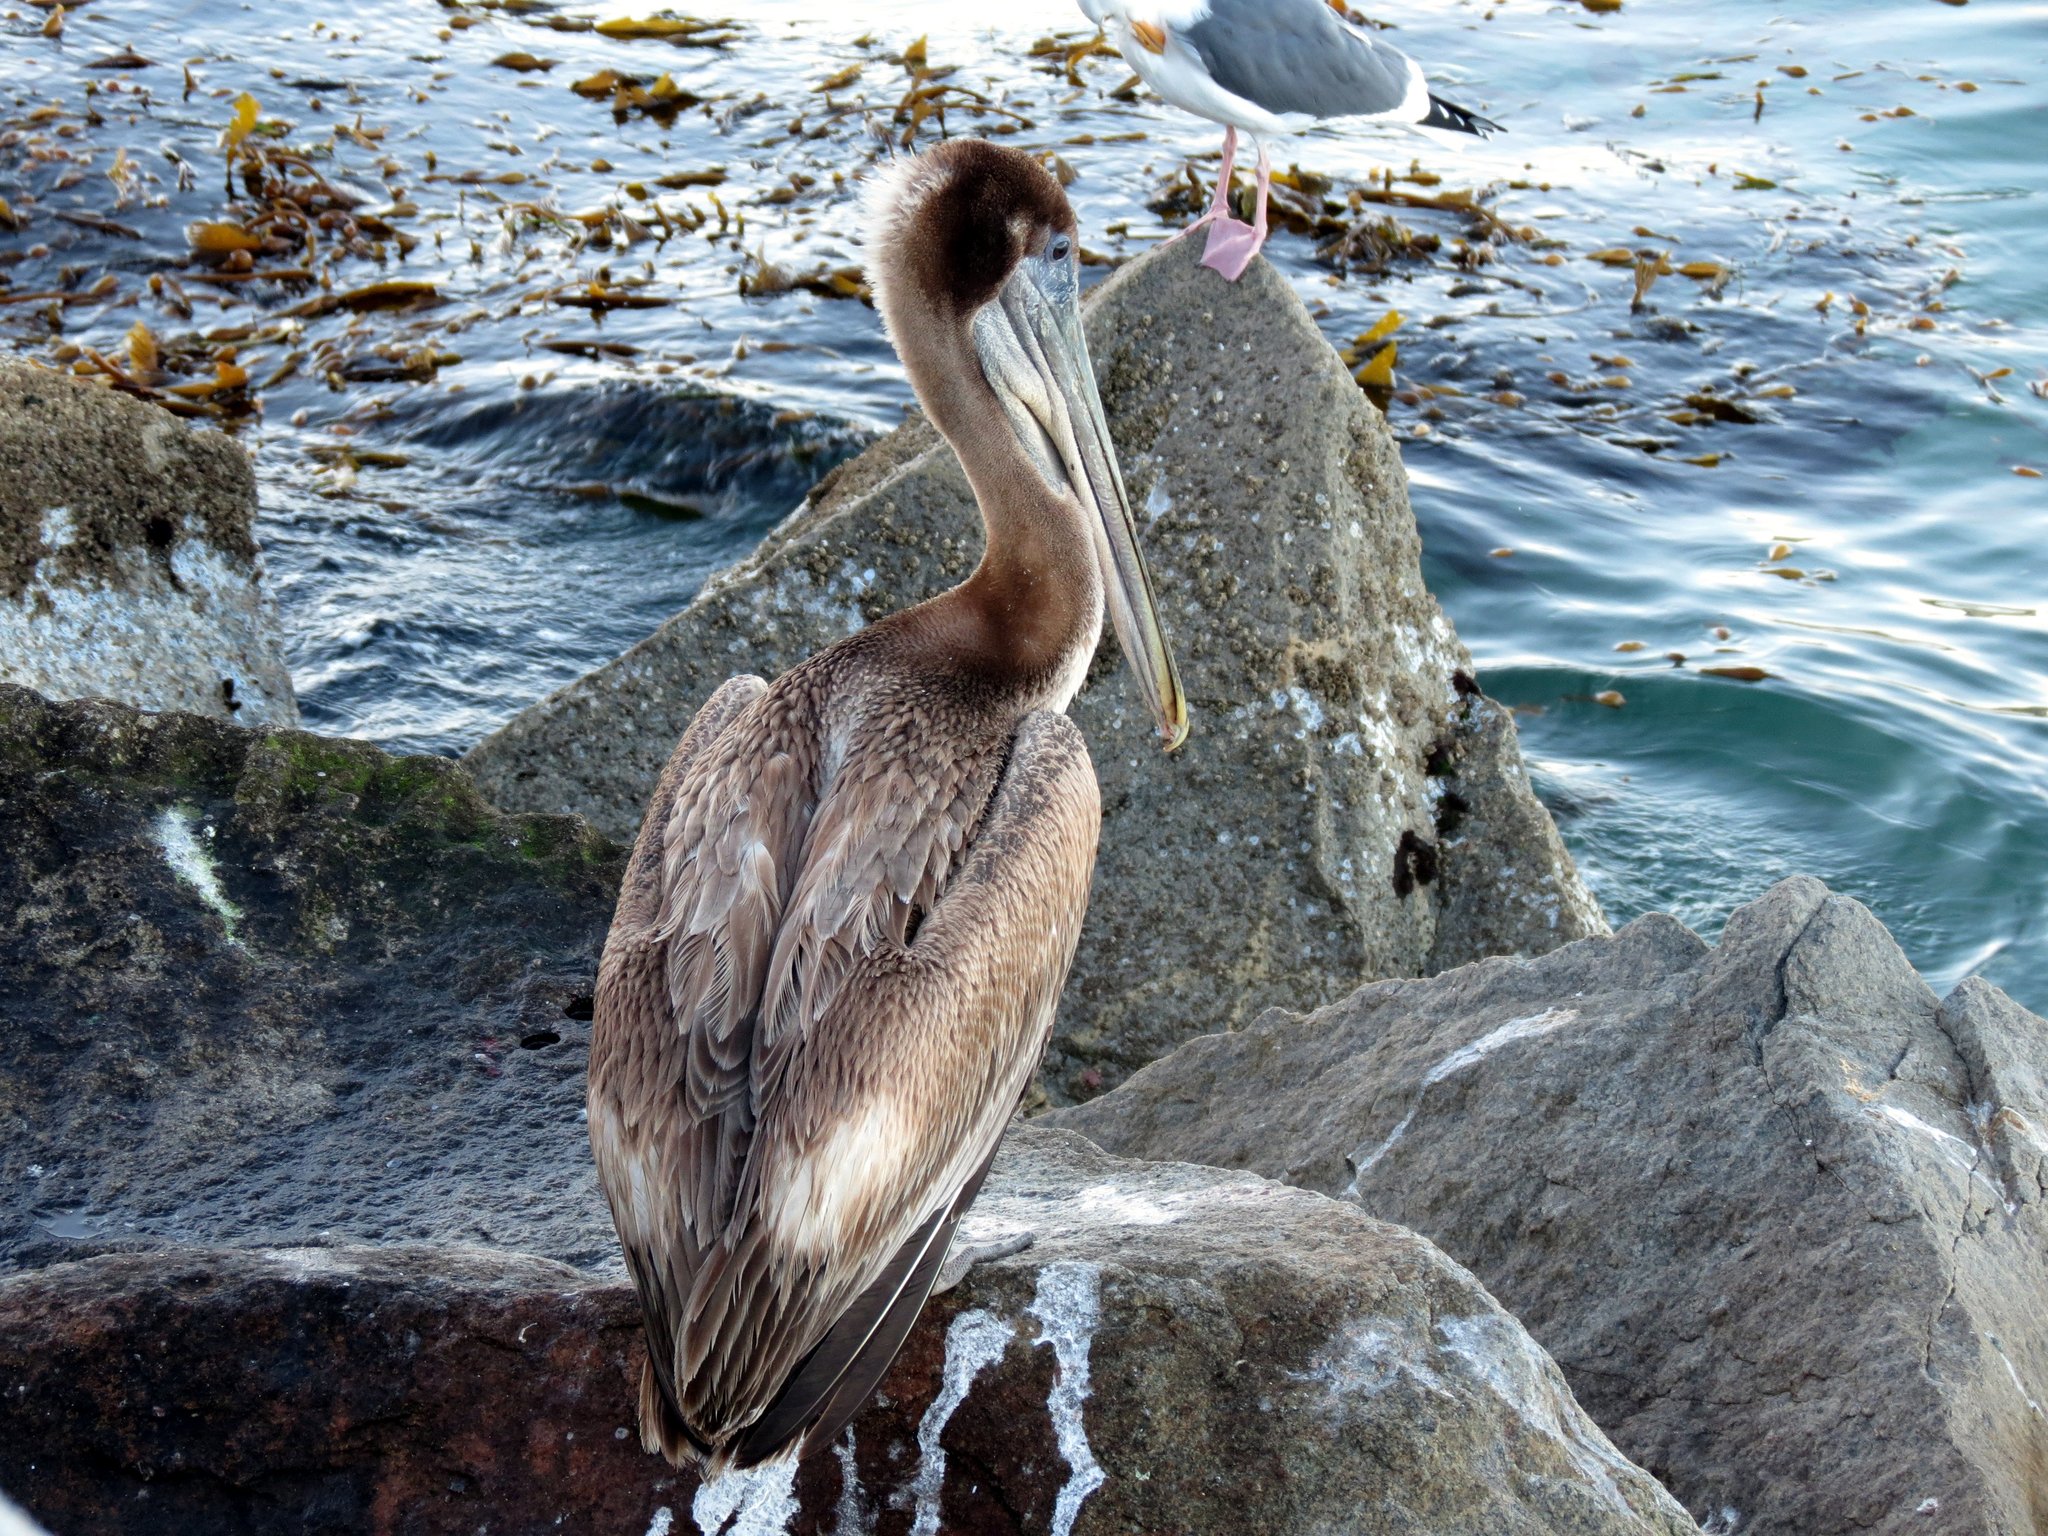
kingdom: Animalia
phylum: Chordata
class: Aves
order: Pelecaniformes
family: Pelecanidae
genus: Pelecanus
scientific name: Pelecanus occidentalis
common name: Brown pelican
